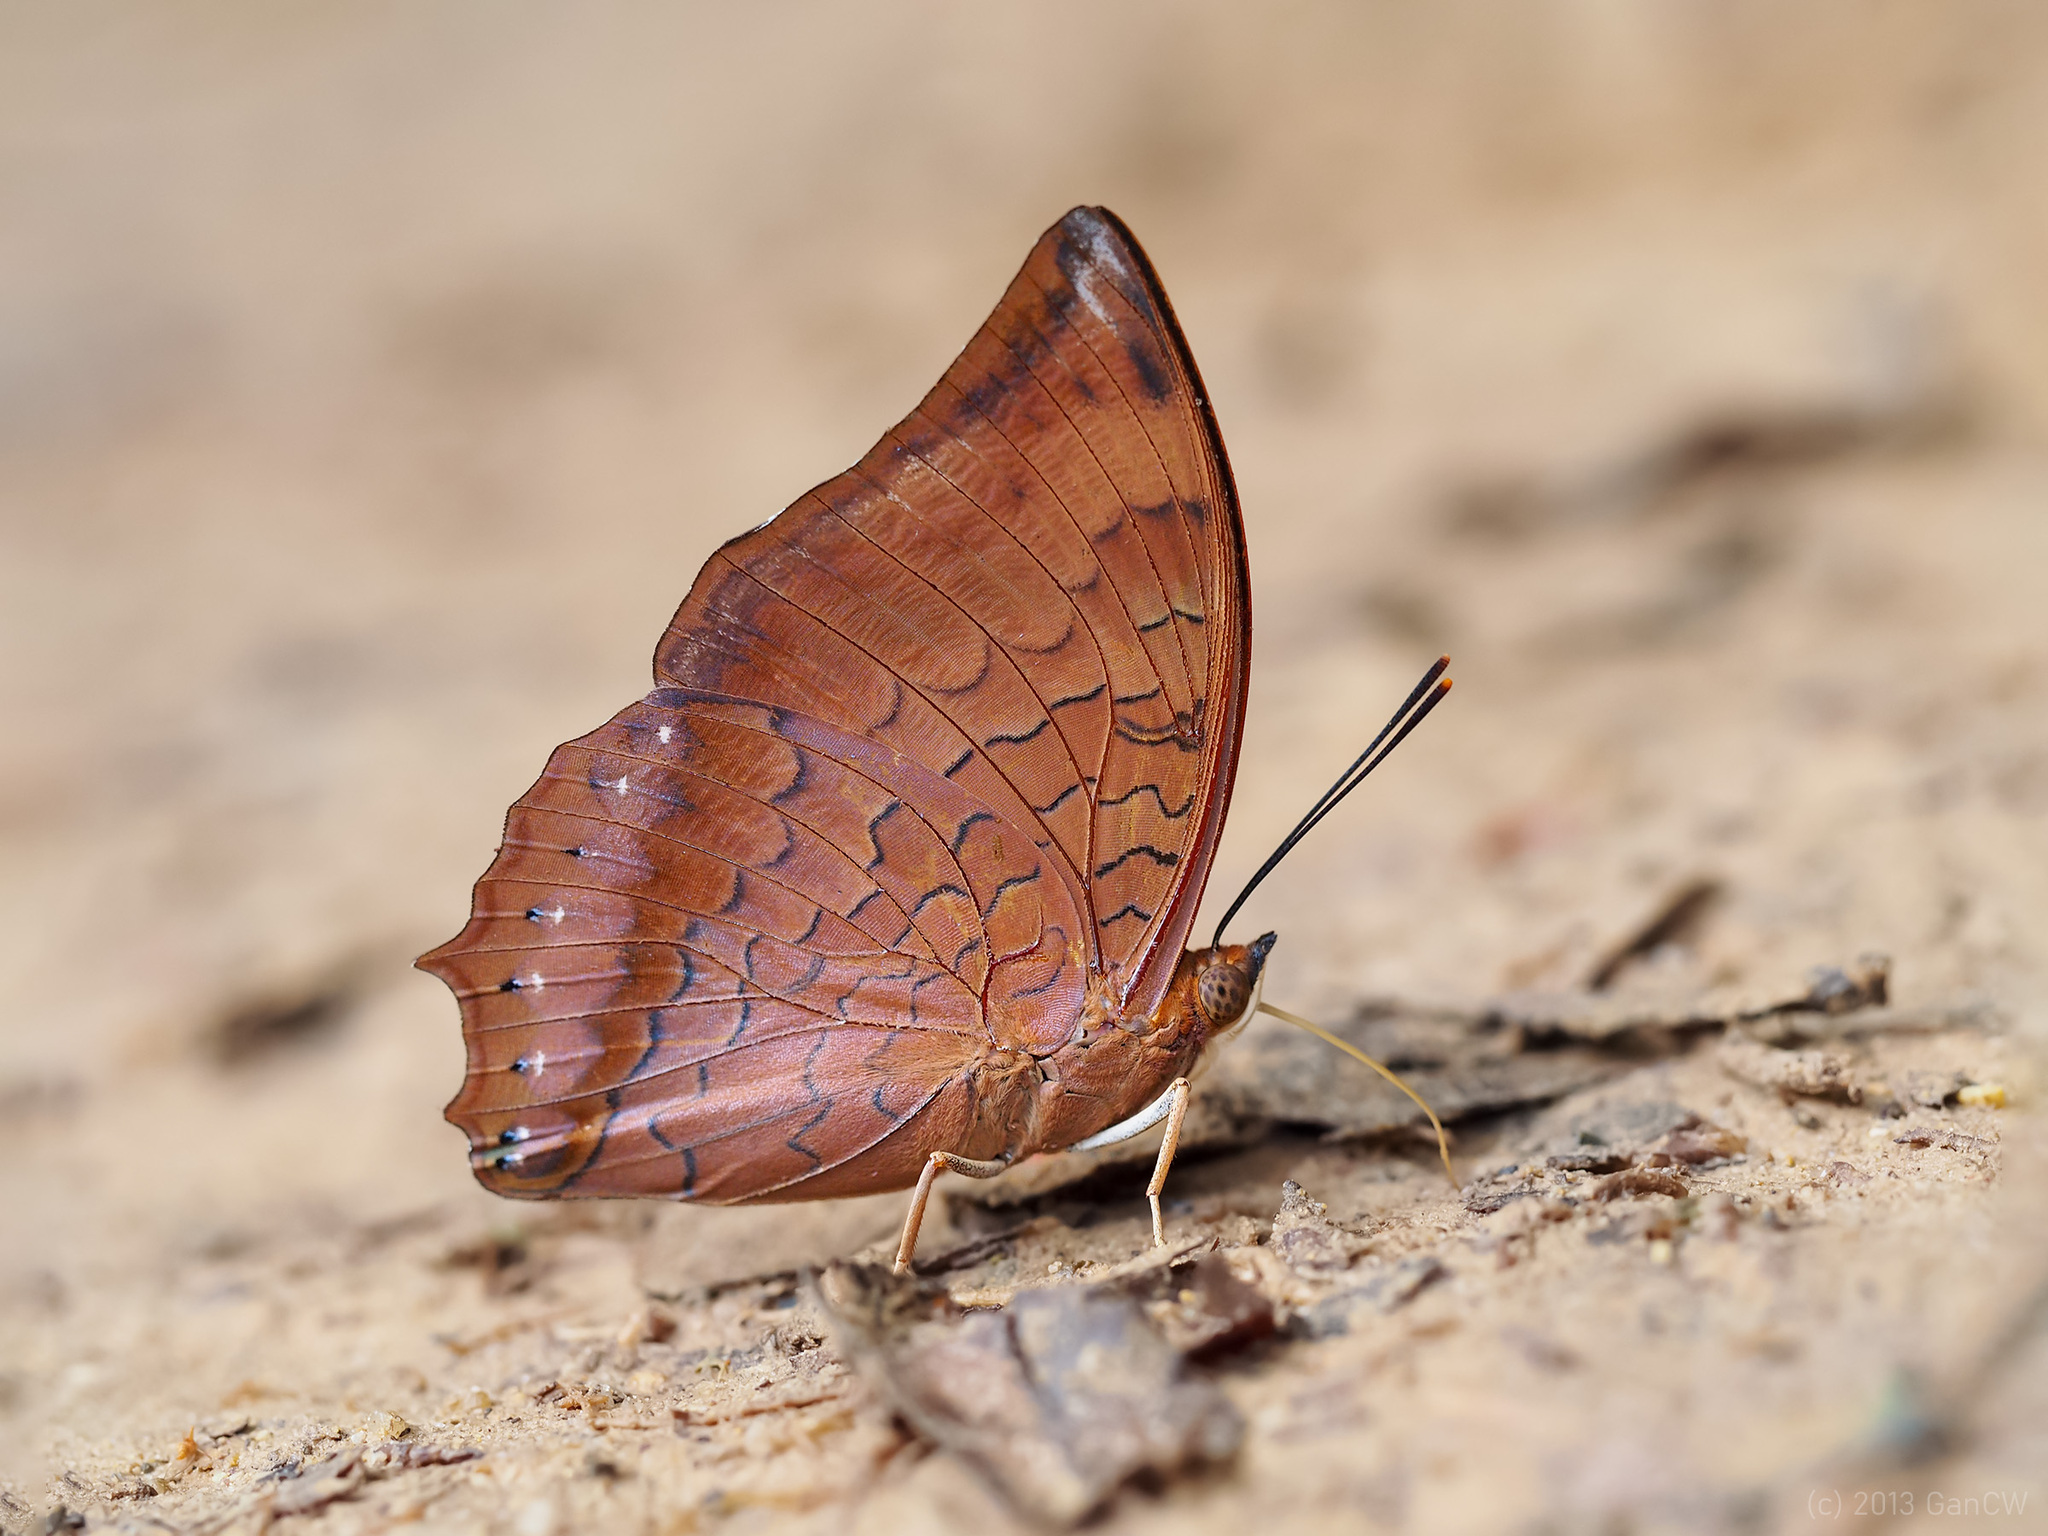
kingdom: Animalia
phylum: Arthropoda
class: Insecta
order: Lepidoptera
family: Nymphalidae
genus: Charaxes
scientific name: Charaxes bernardus
